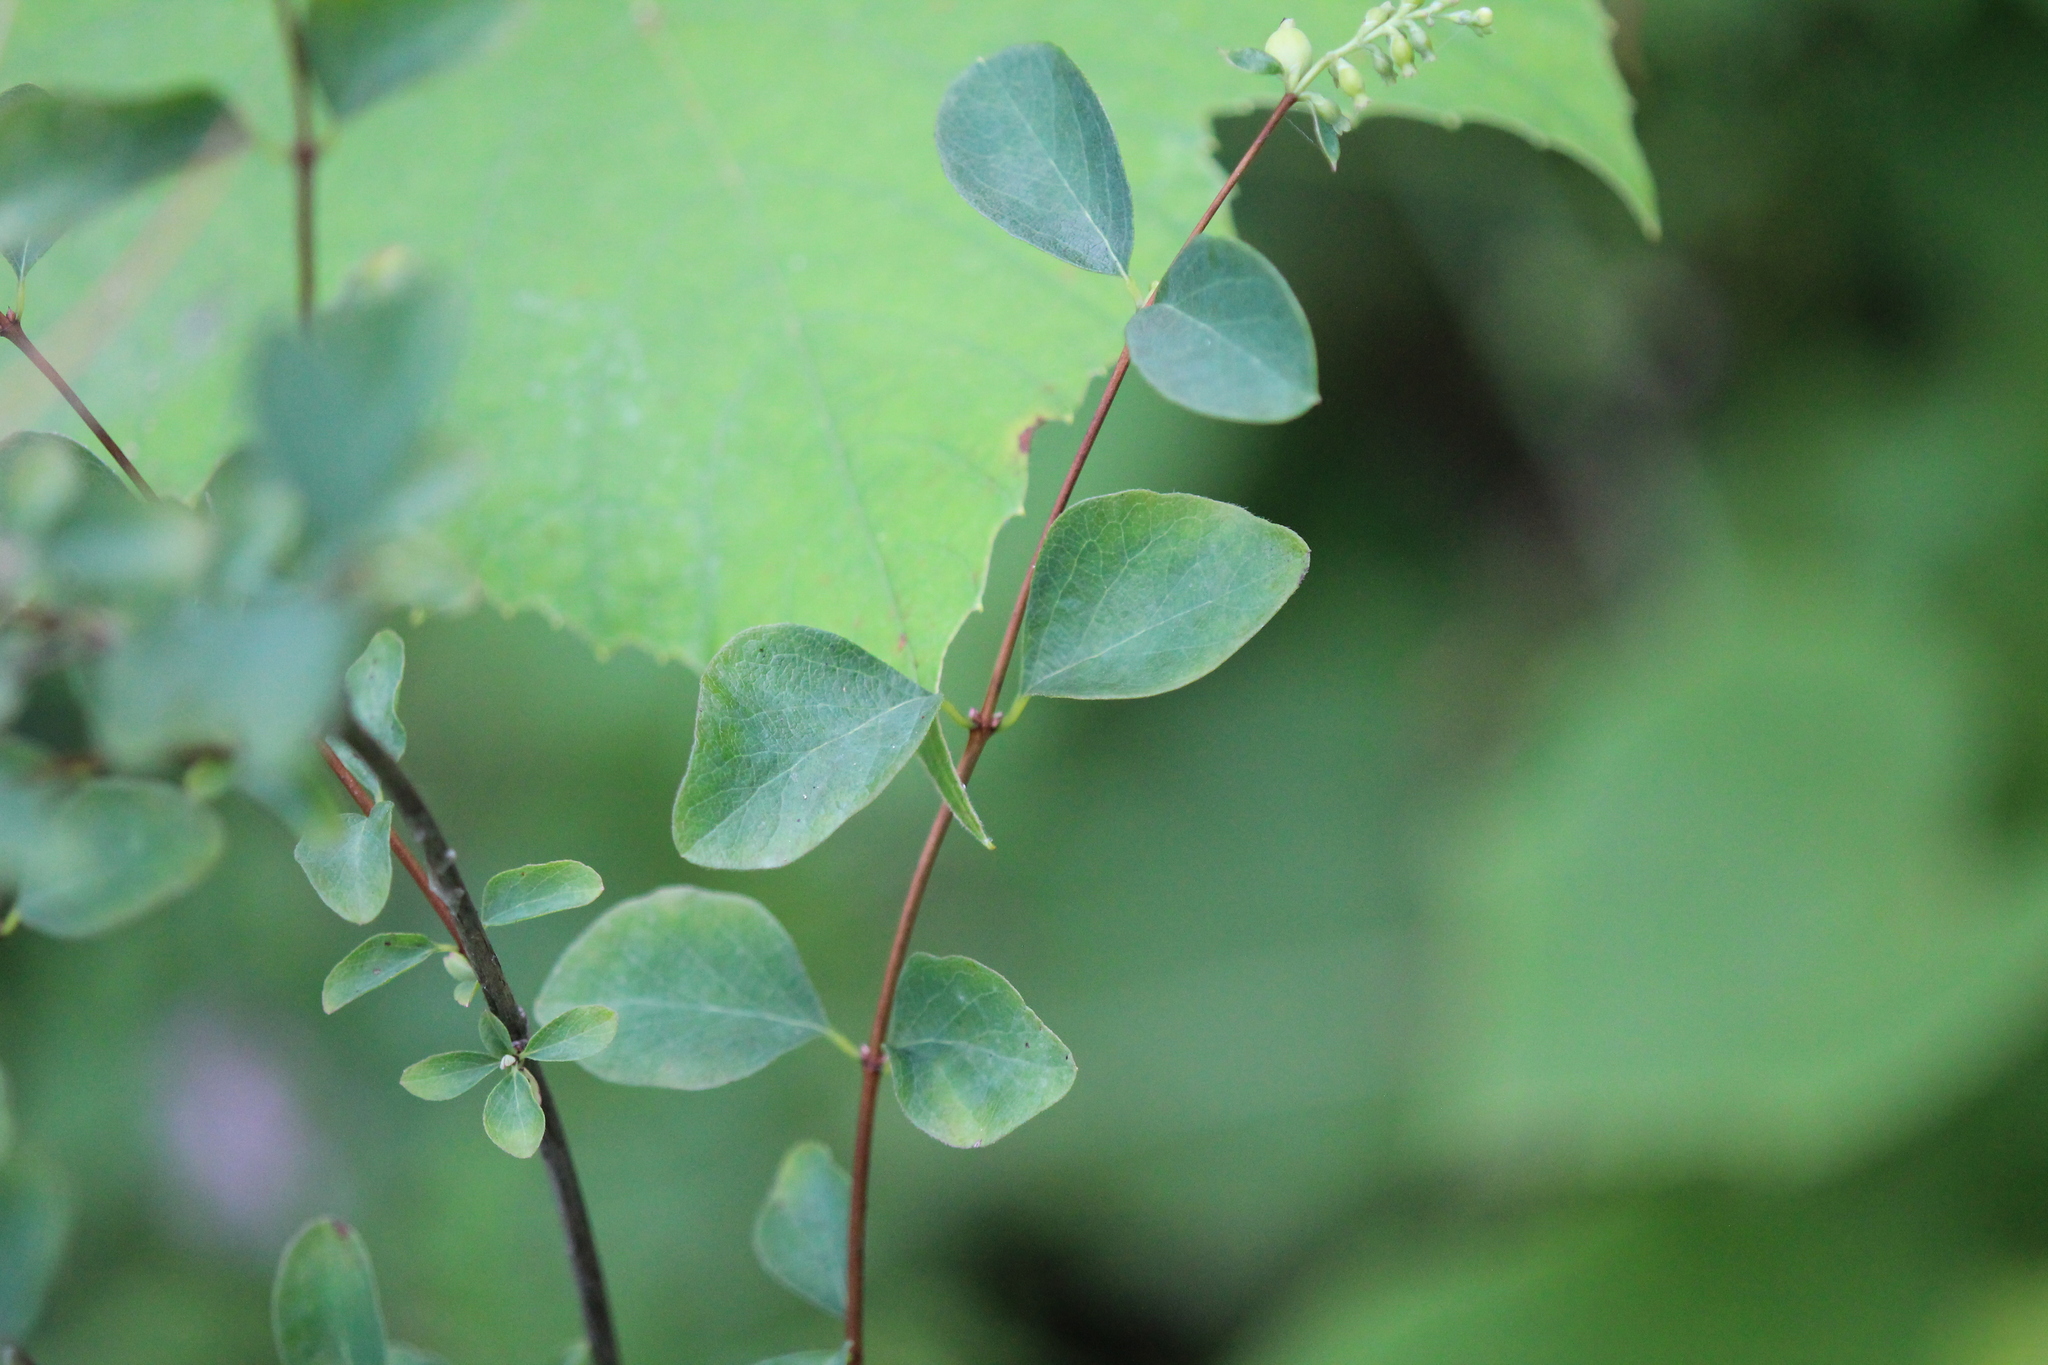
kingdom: Plantae
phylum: Tracheophyta
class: Magnoliopsida
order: Dipsacales
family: Caprifoliaceae
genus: Symphoricarpos
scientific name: Symphoricarpos albus
